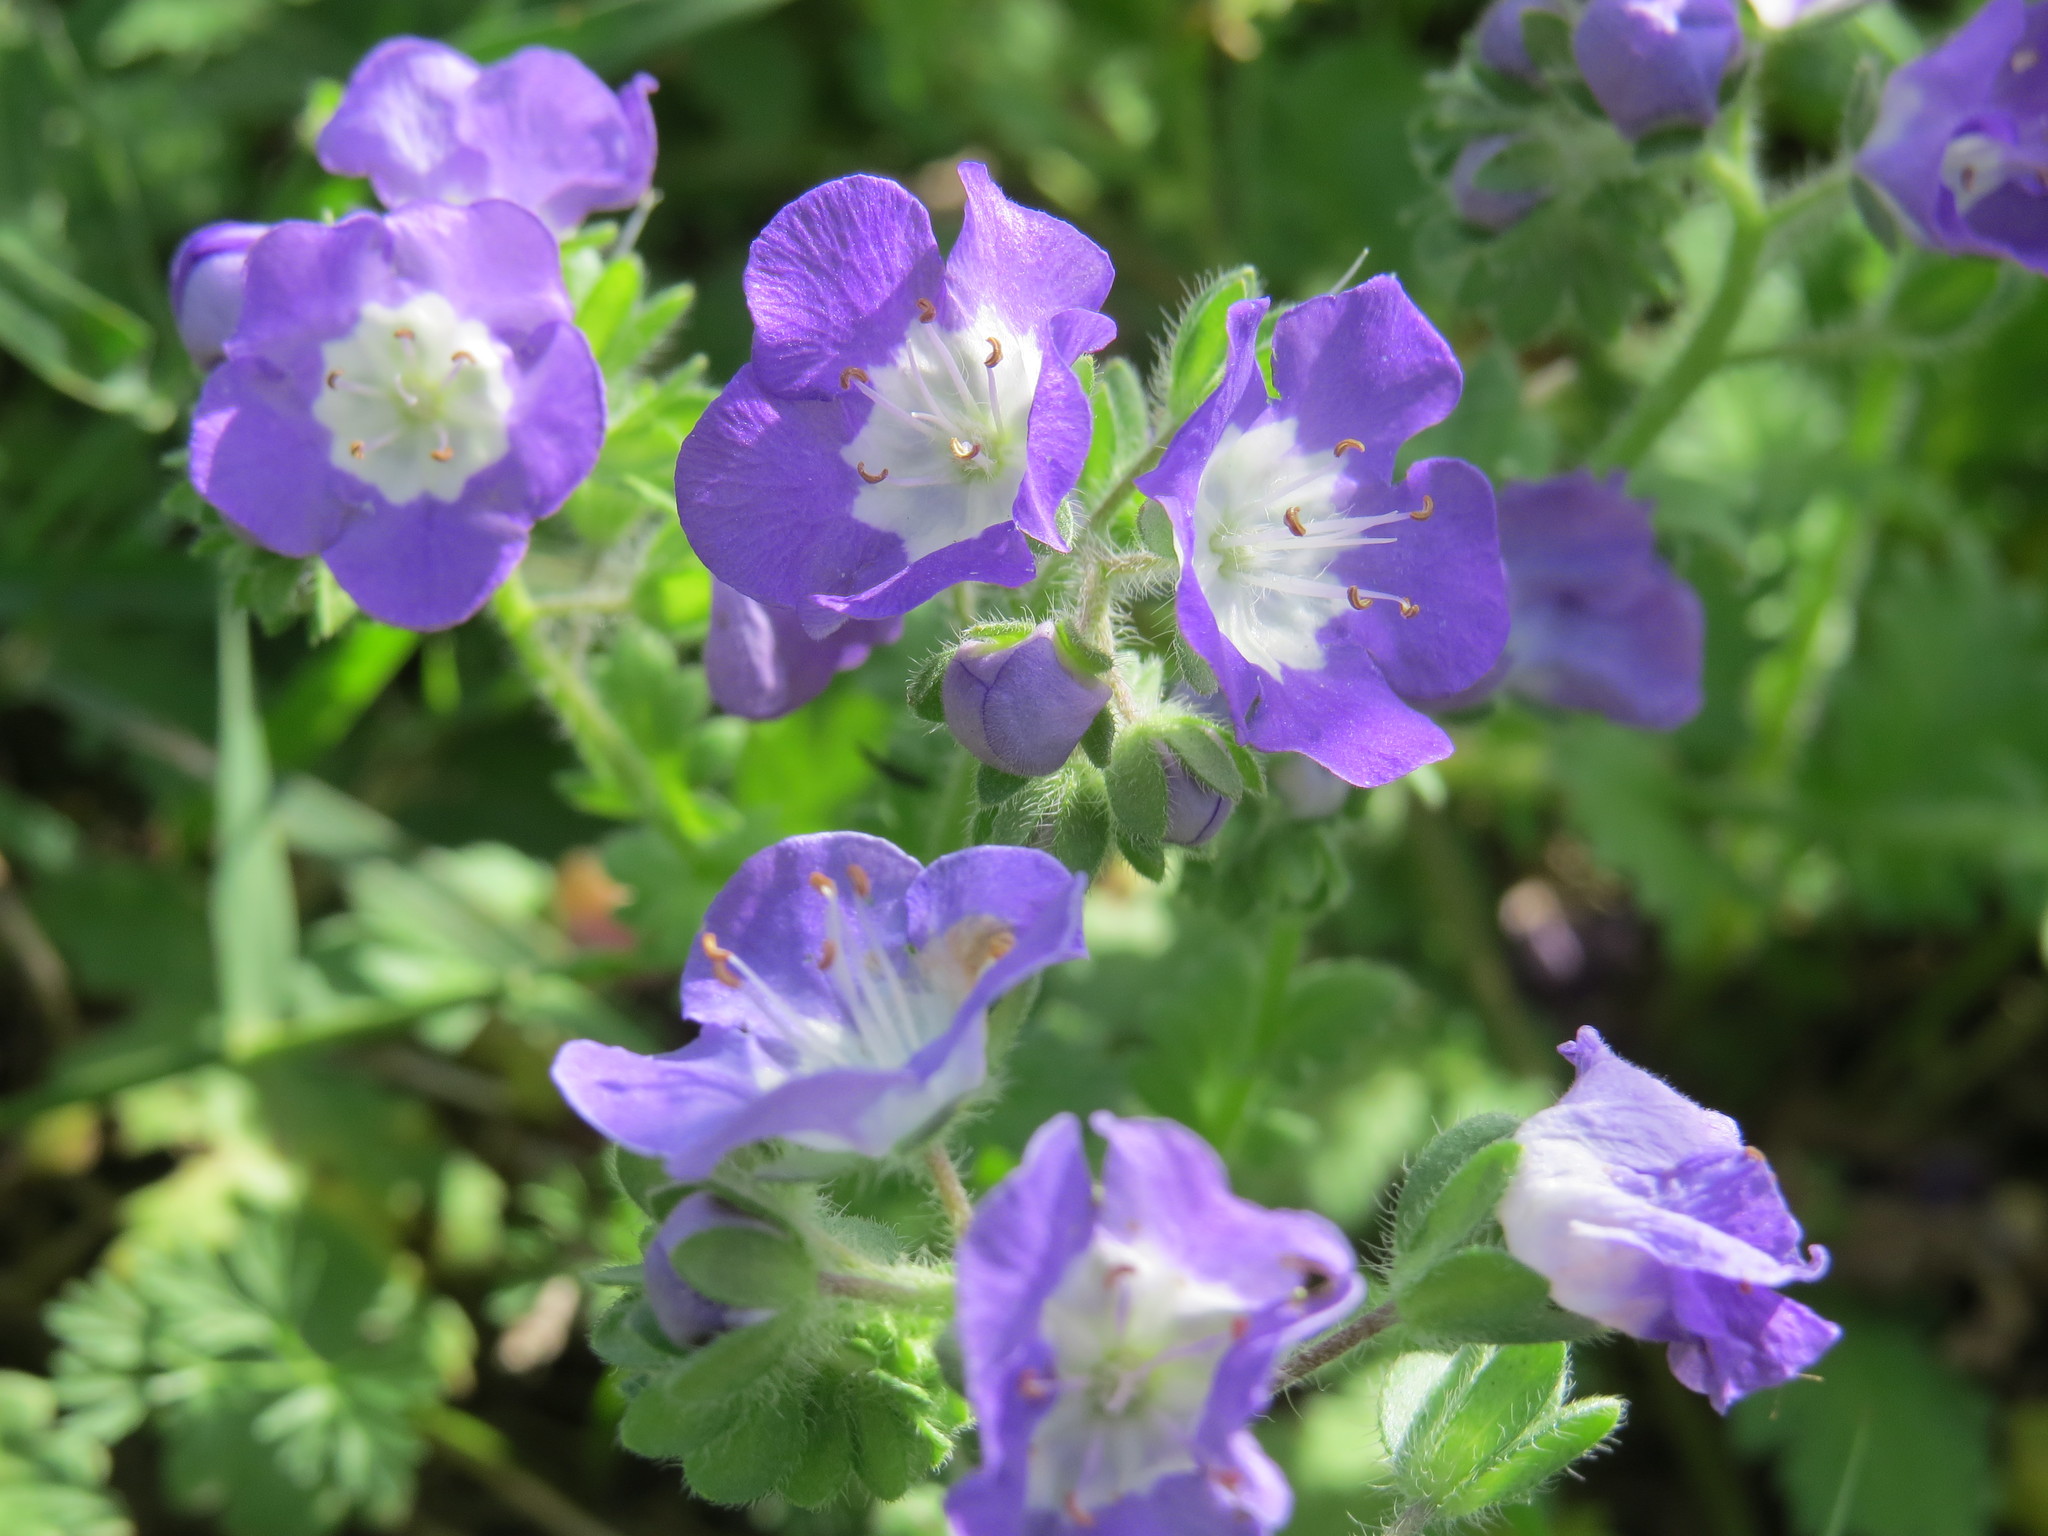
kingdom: Plantae
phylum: Tracheophyta
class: Magnoliopsida
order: Boraginales
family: Hydrophyllaceae
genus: Phacelia
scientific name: Phacelia austrotexana
